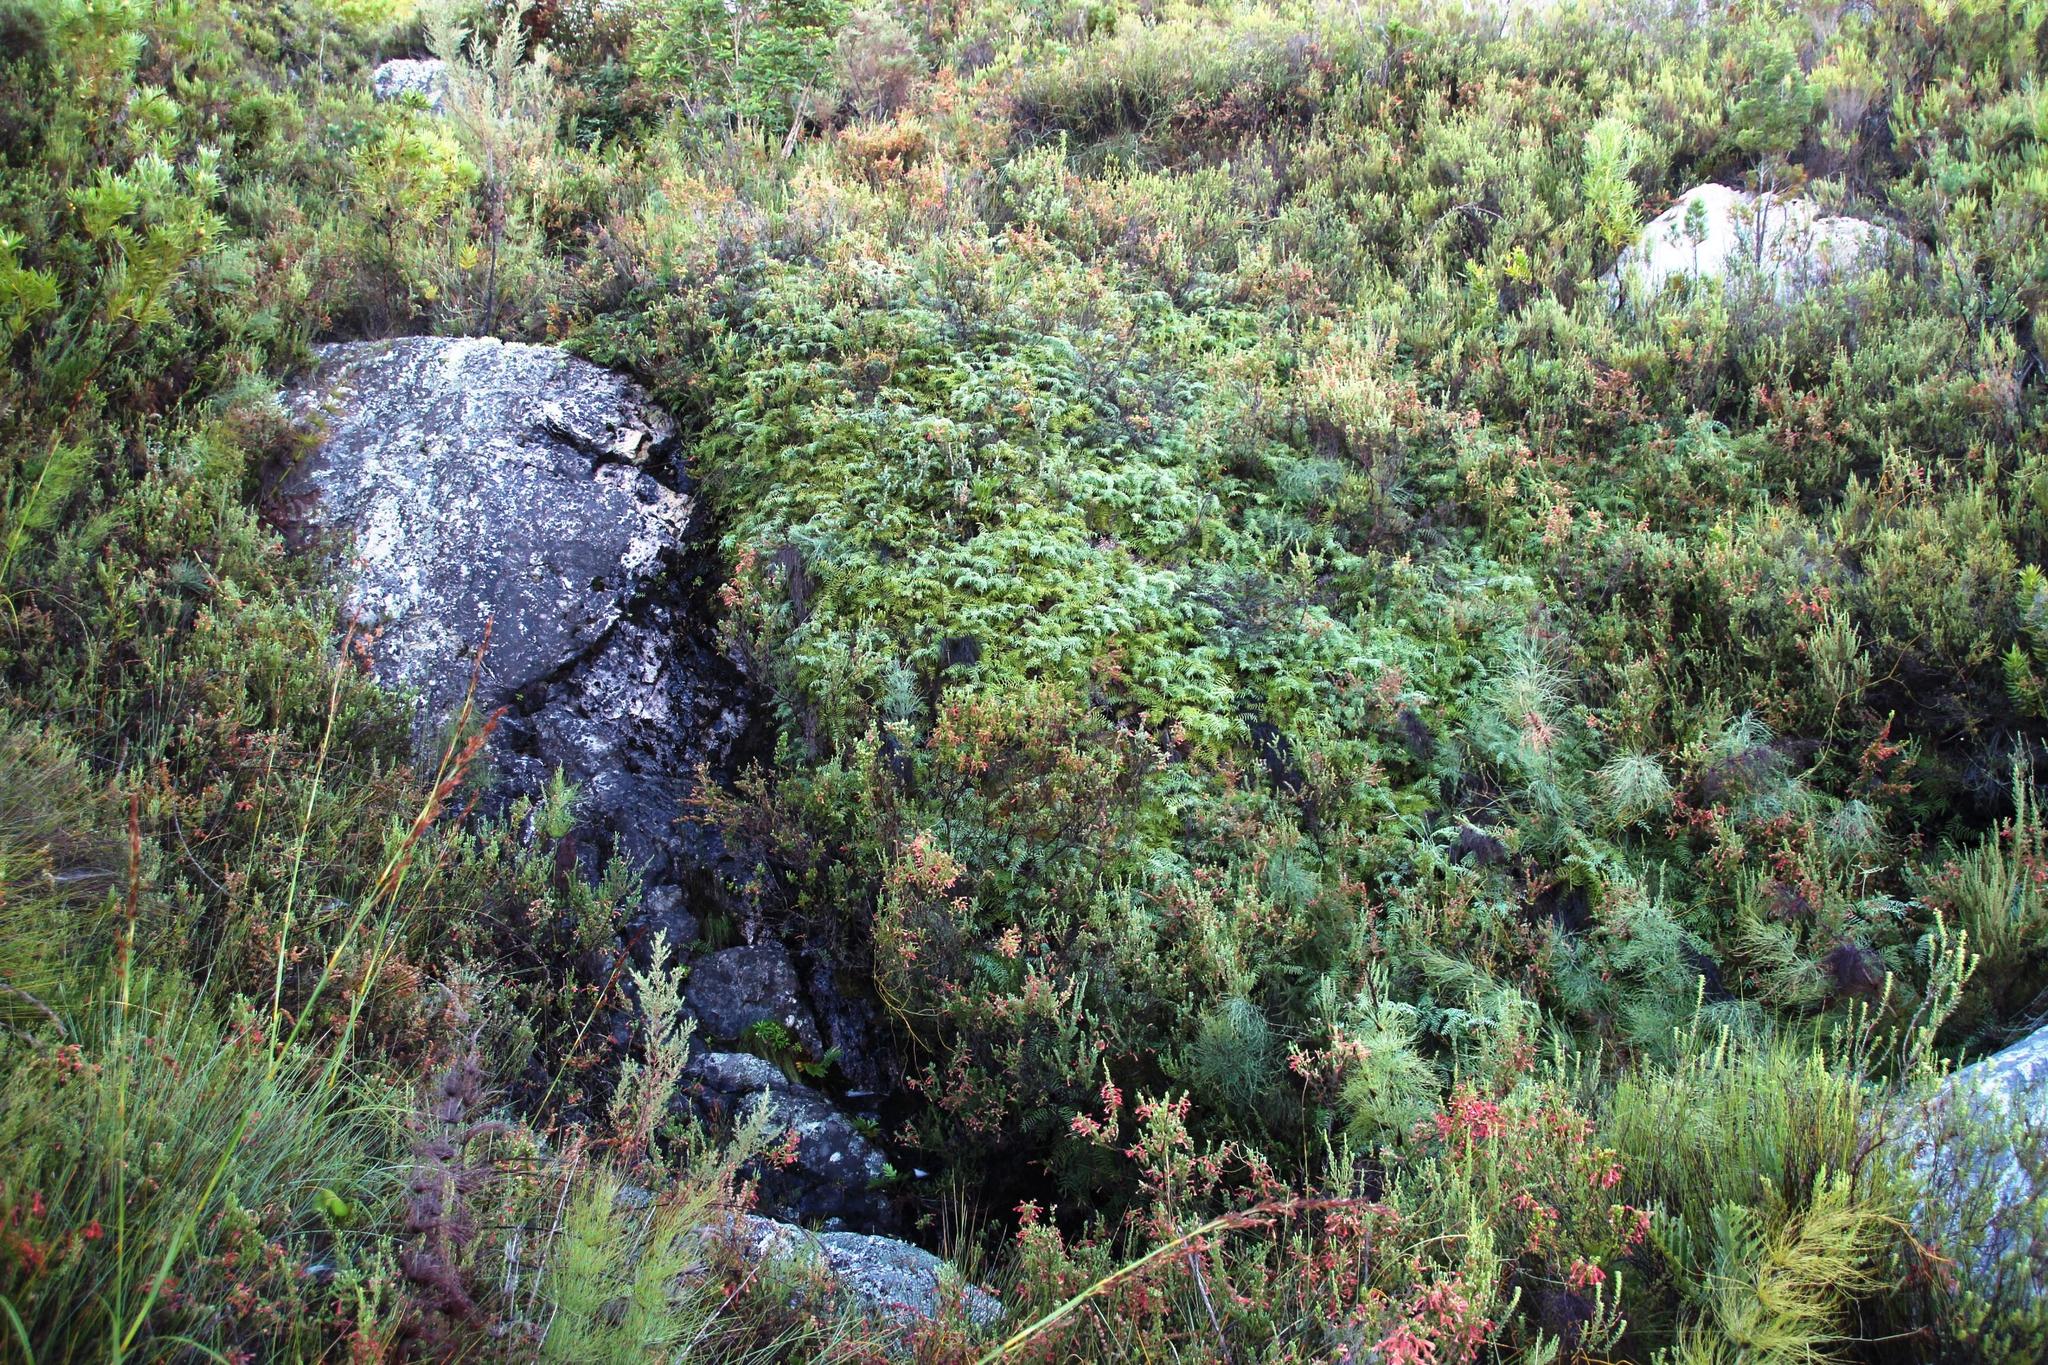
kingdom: Plantae
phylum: Tracheophyta
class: Polypodiopsida
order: Gleicheniales
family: Gleicheniaceae
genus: Gleichenia
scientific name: Gleichenia polypodioides
